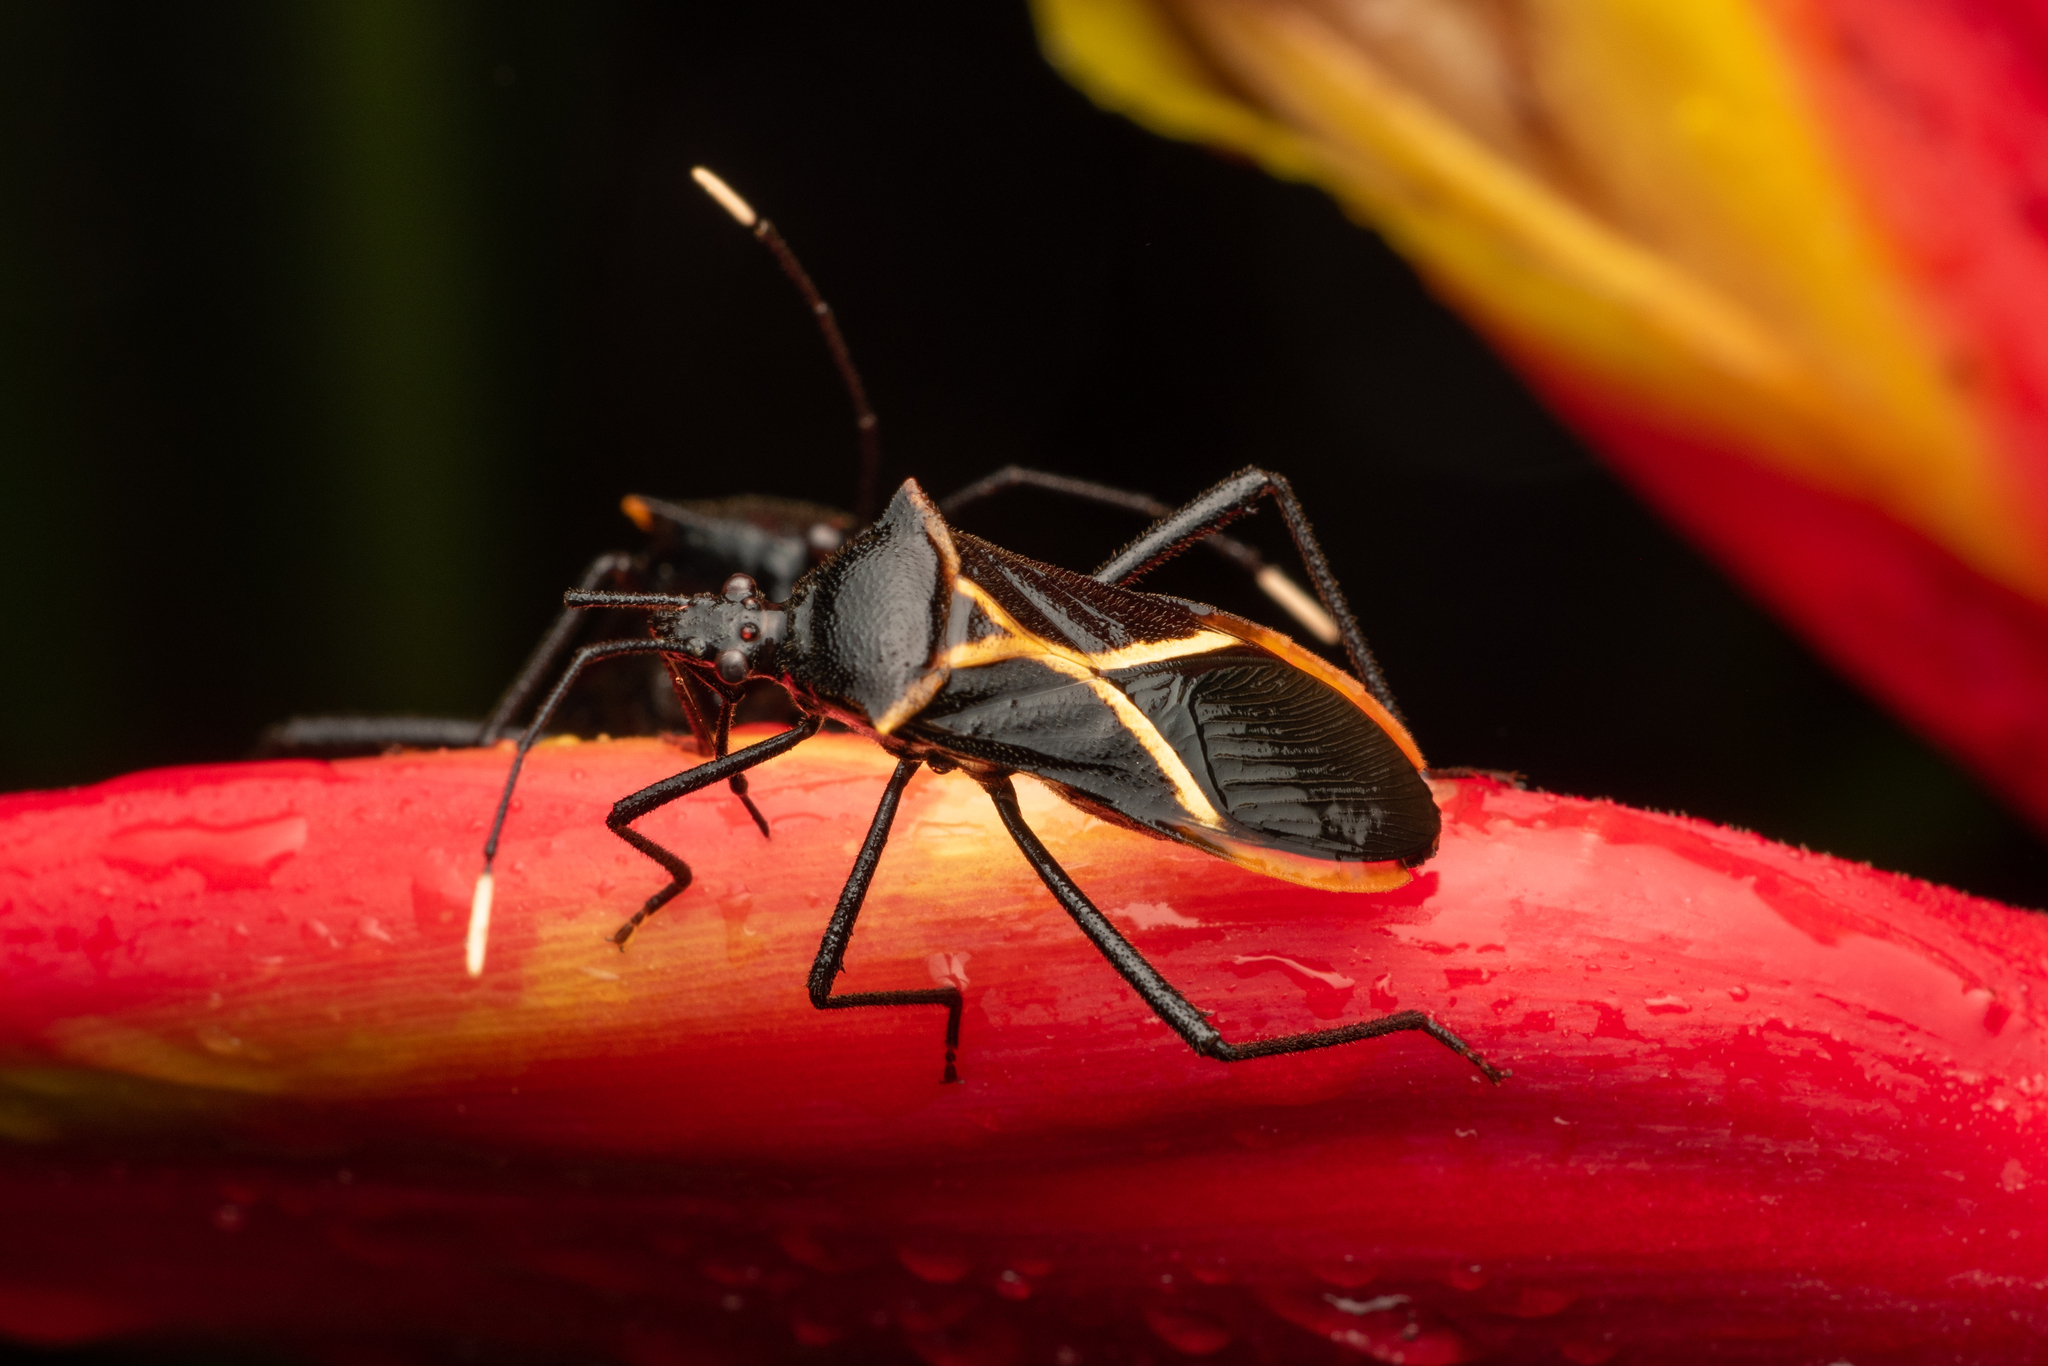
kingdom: Animalia
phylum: Arthropoda
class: Insecta
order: Hemiptera
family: Coreidae
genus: Leptoscelis
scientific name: Leptoscelis conspicuus
